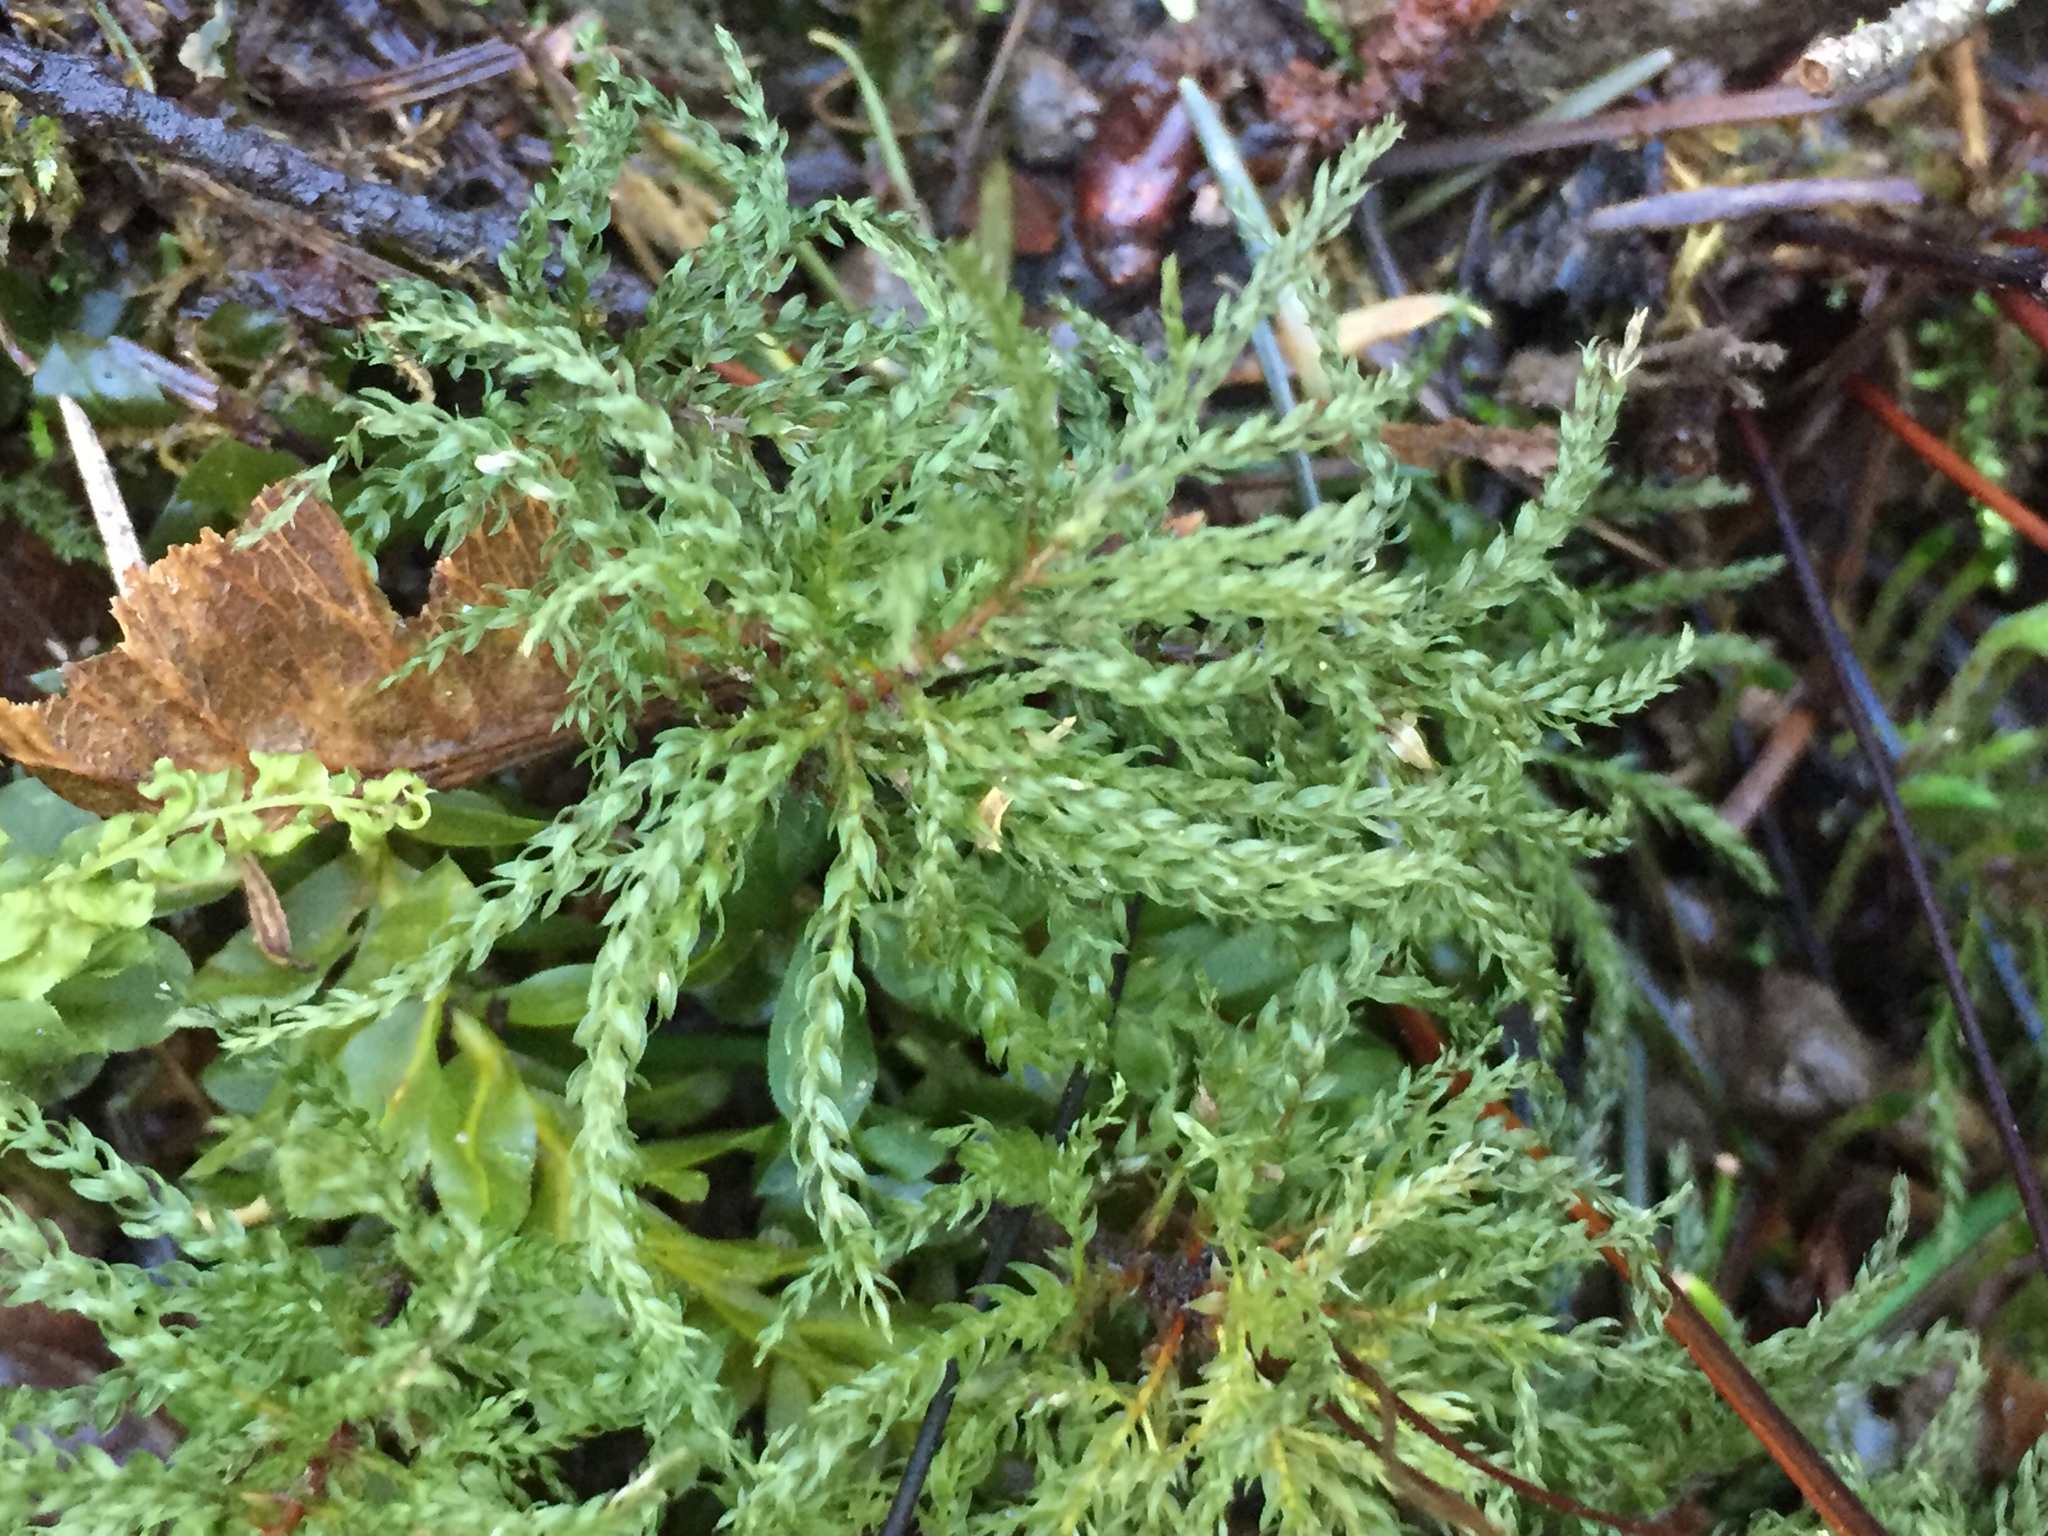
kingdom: Plantae
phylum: Bryophyta
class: Bryopsida
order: Bryales
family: Mniaceae
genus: Leucolepis
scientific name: Leucolepis acanthoneura
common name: Leucolepis umbrella moss
